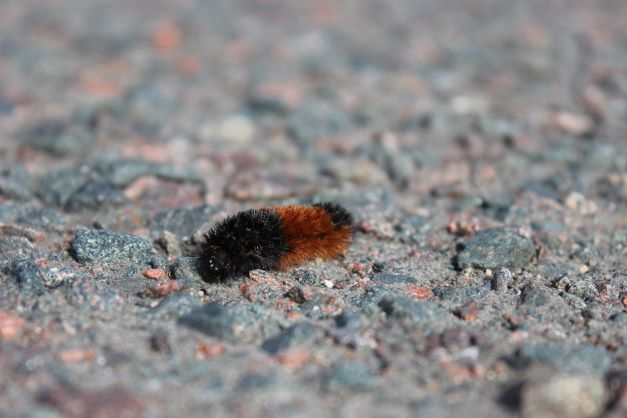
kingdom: Animalia
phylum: Arthropoda
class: Insecta
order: Lepidoptera
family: Erebidae
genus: Pyrrharctia
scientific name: Pyrrharctia isabella
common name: Isabella tiger moth
